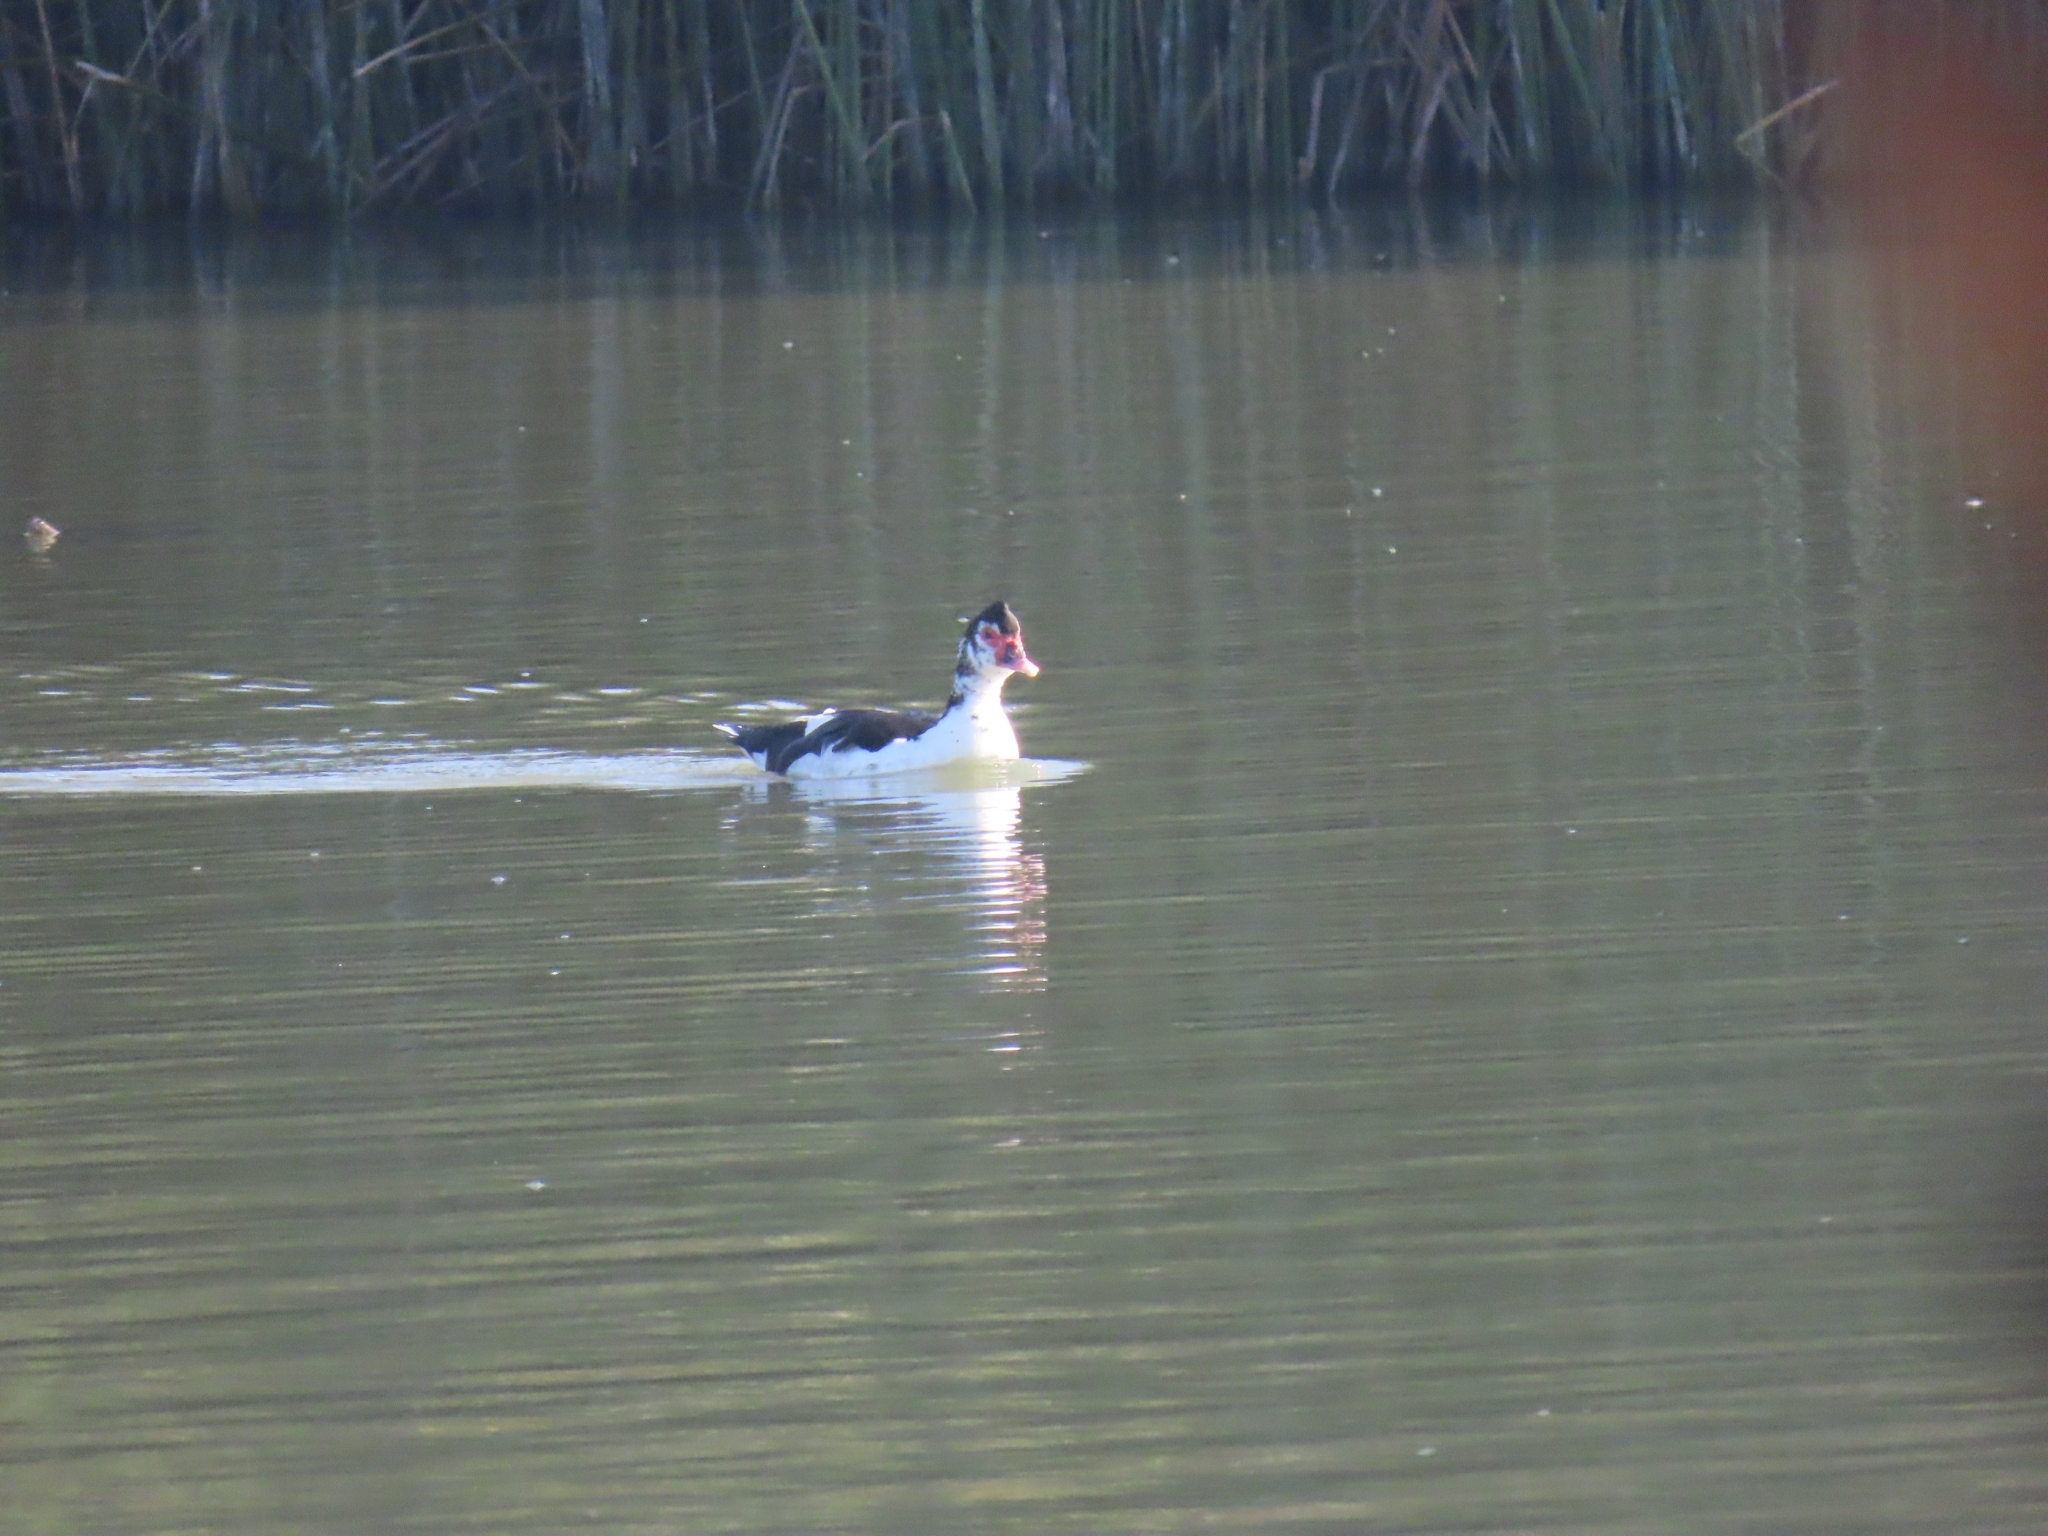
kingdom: Animalia
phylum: Chordata
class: Aves
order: Anseriformes
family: Anatidae
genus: Cairina
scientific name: Cairina moschata
